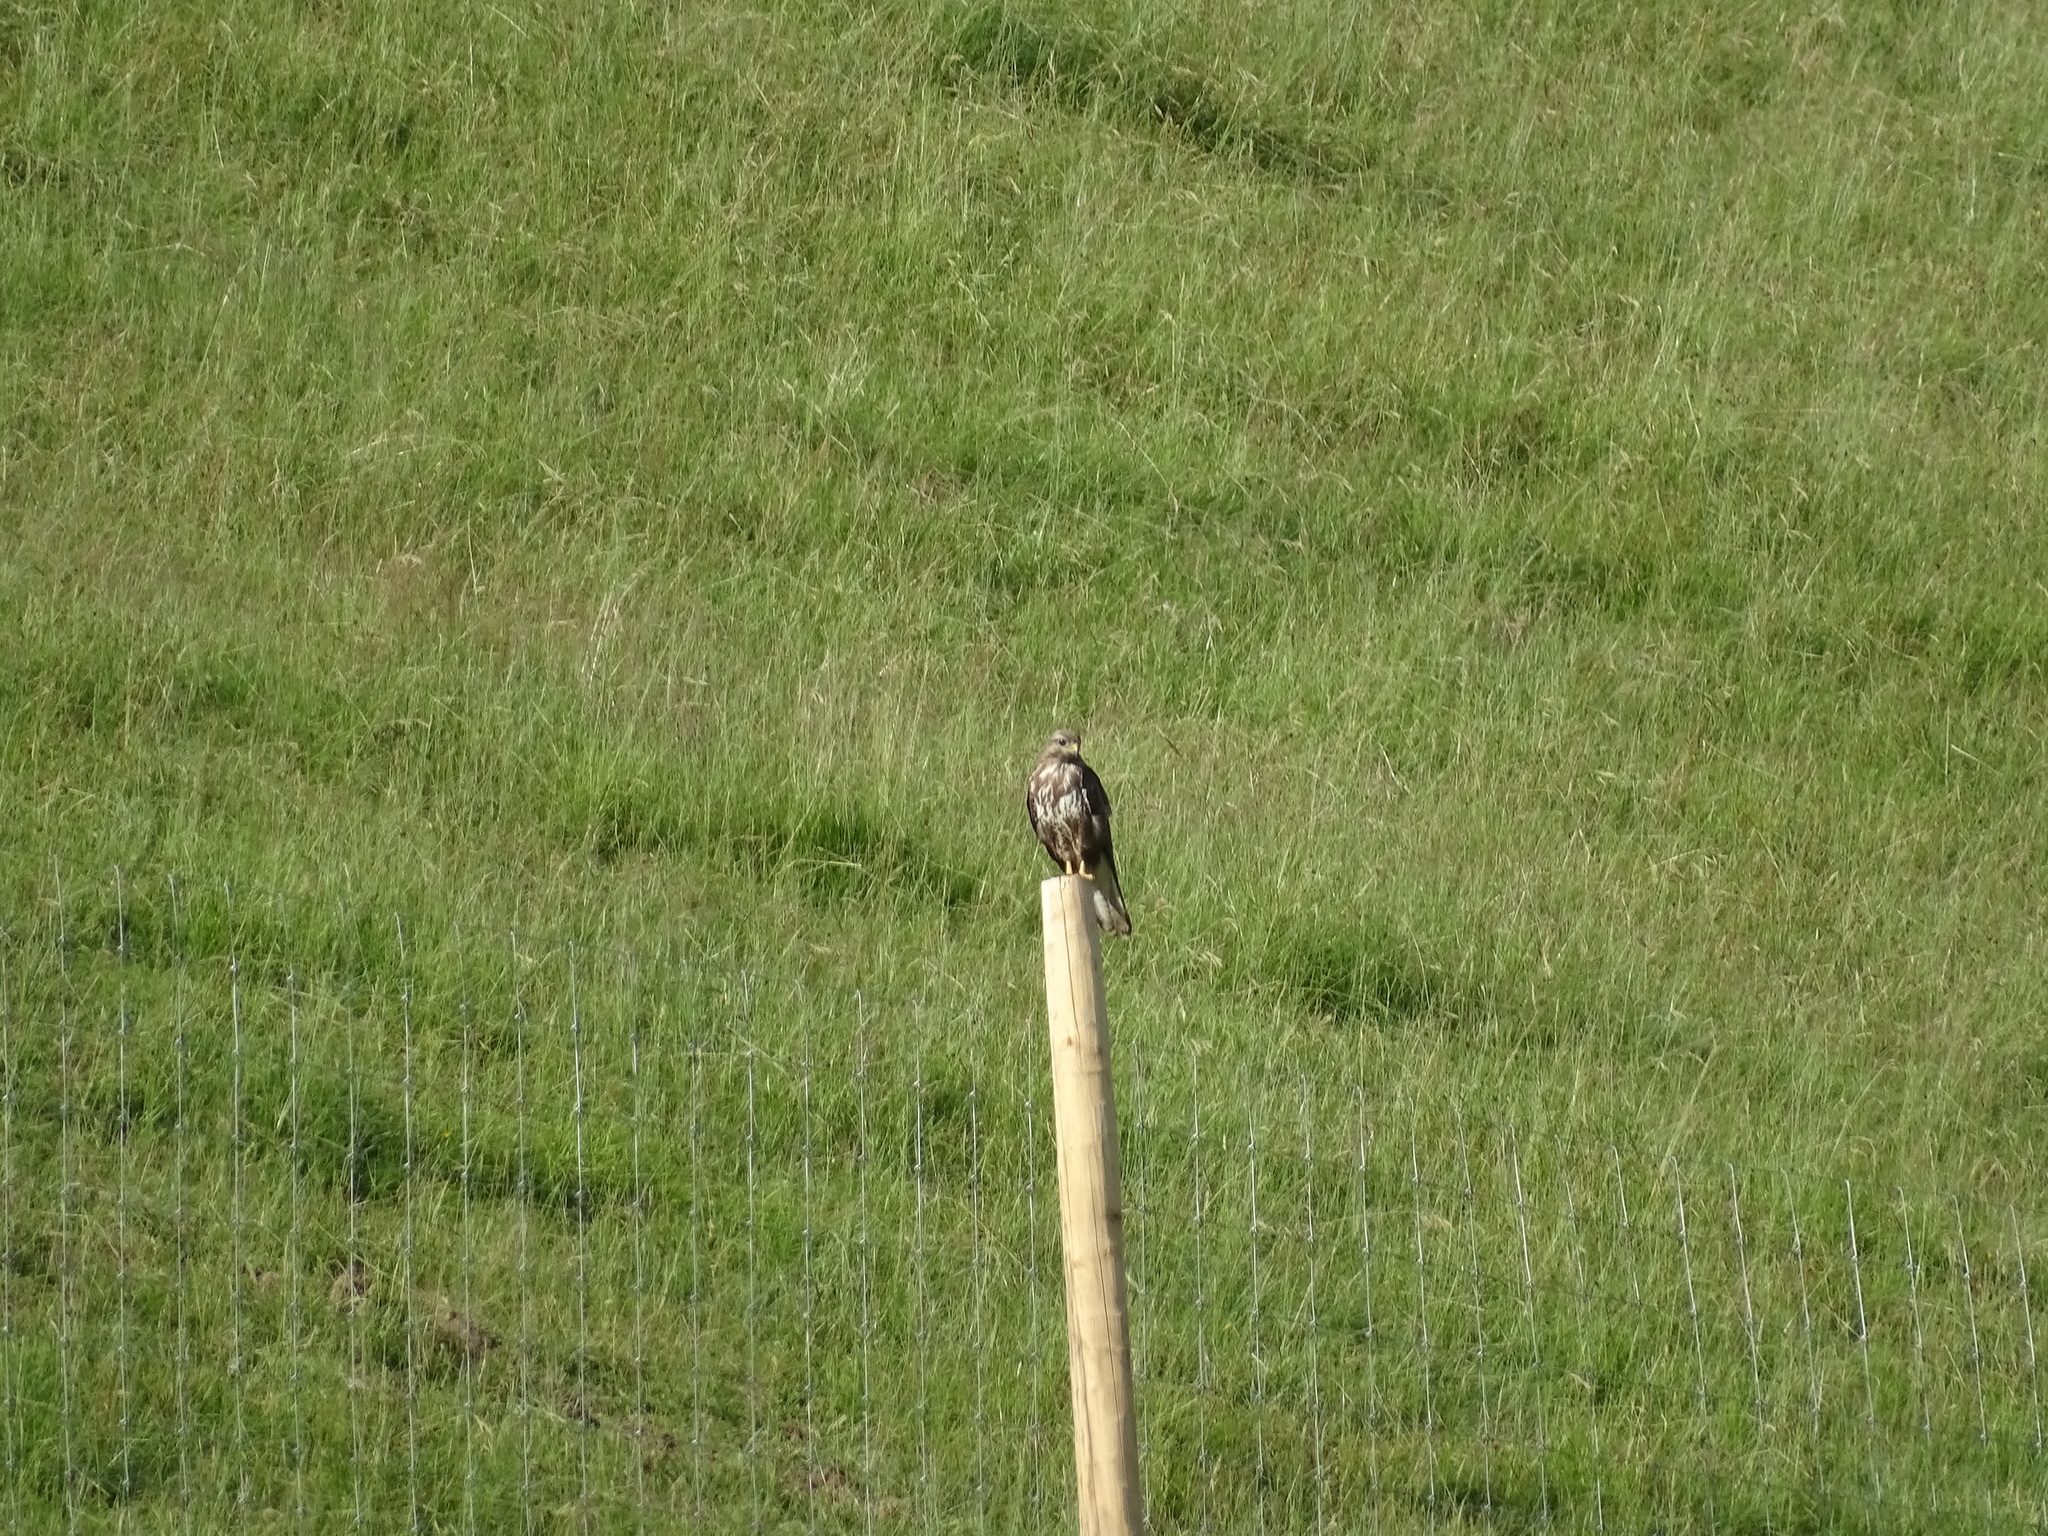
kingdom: Animalia
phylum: Chordata
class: Aves
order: Accipitriformes
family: Accipitridae
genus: Buteo
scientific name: Buteo buteo
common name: Common buzzard
